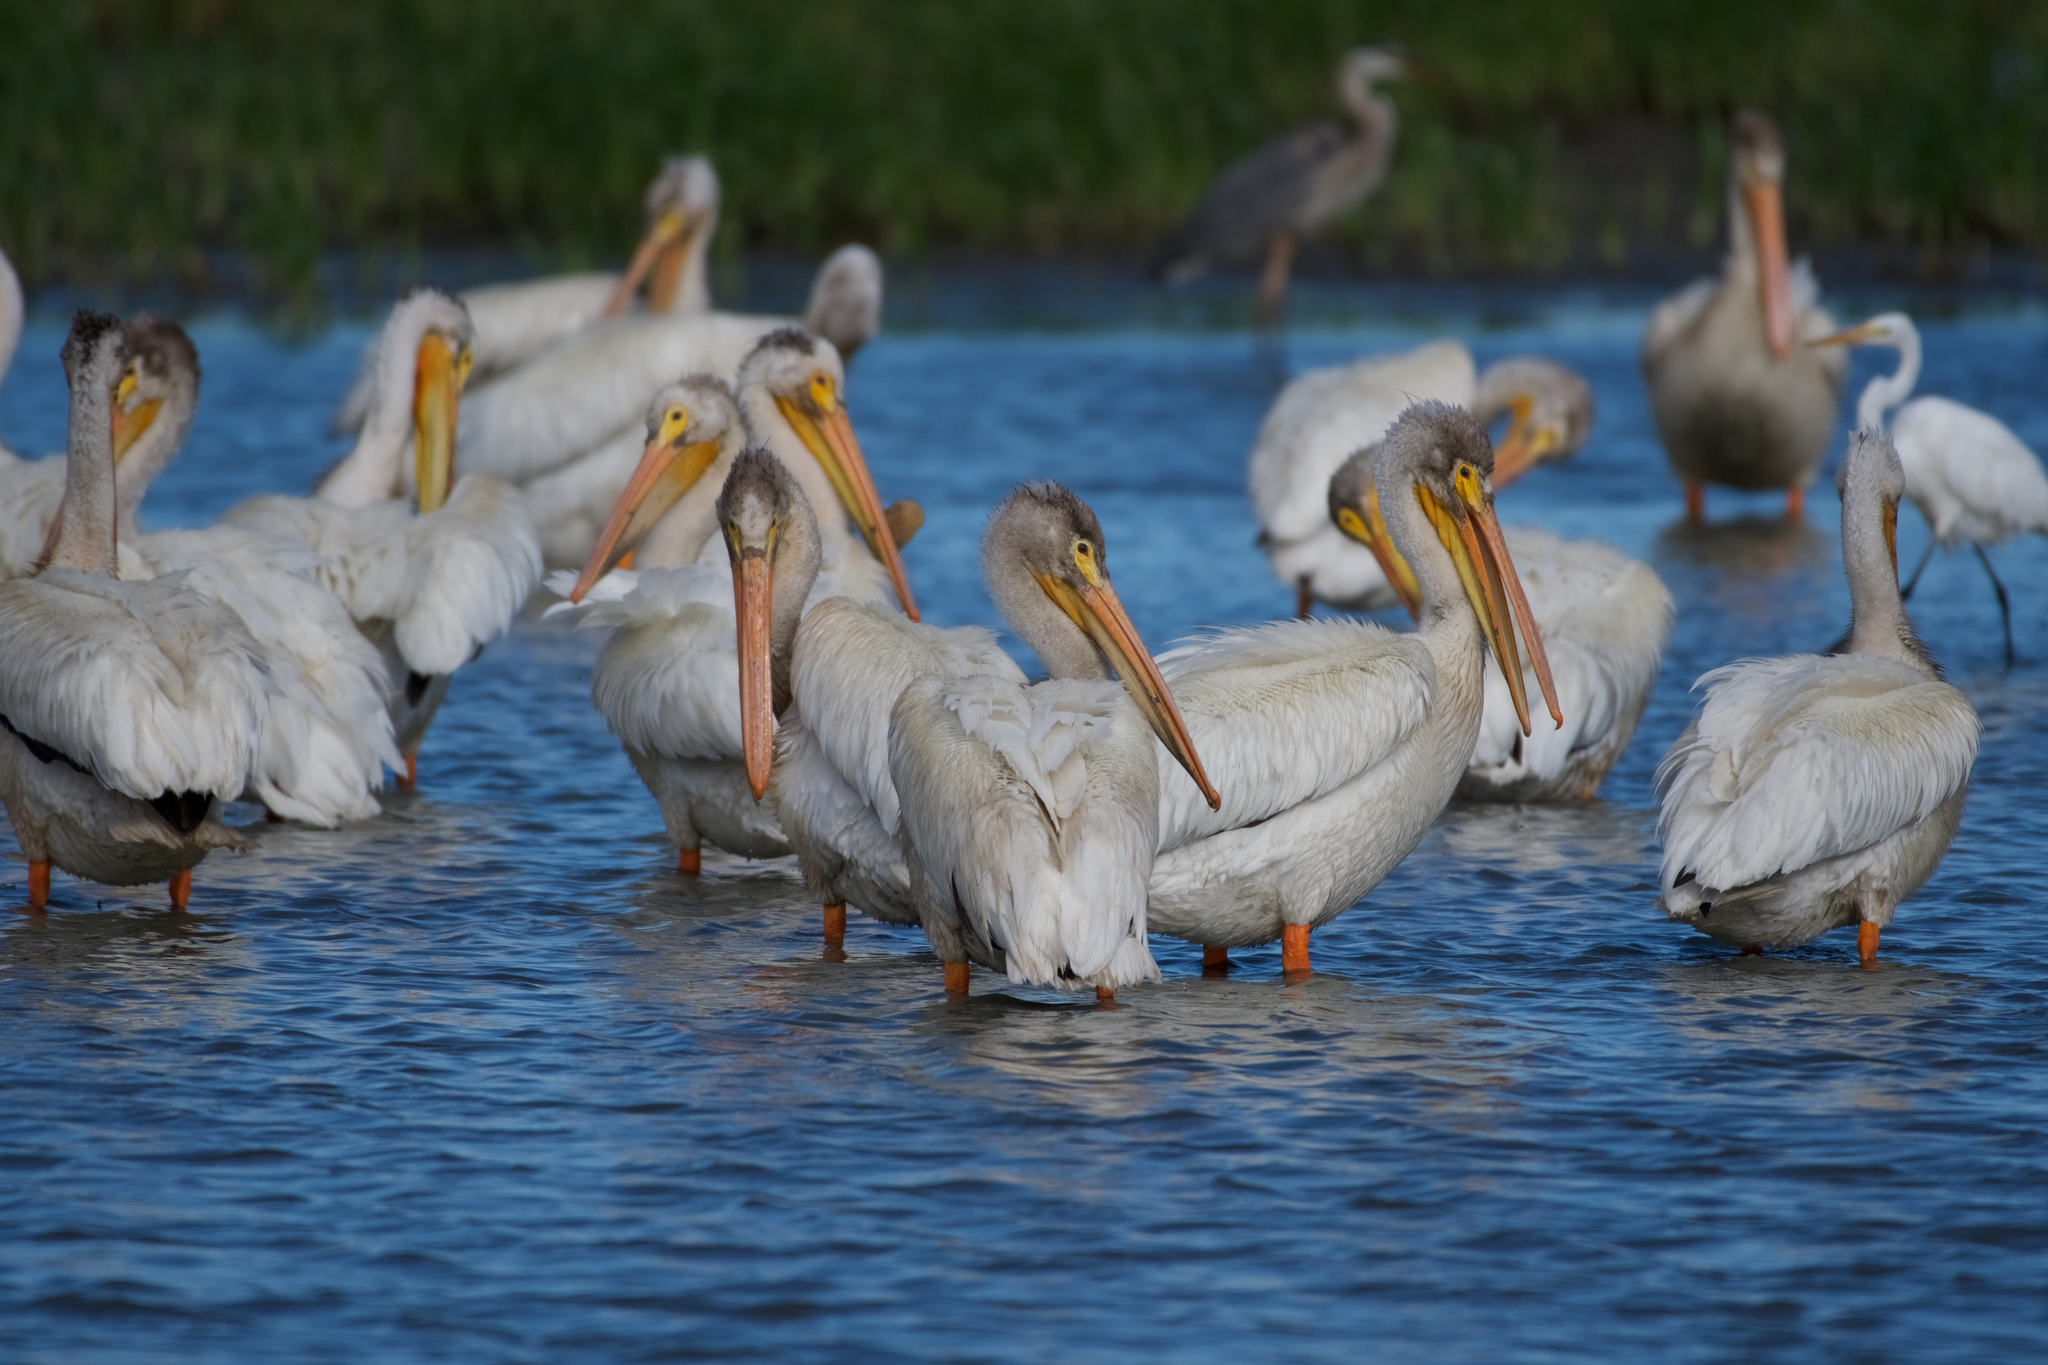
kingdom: Animalia
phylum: Chordata
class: Aves
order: Pelecaniformes
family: Pelecanidae
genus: Pelecanus
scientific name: Pelecanus erythrorhynchos
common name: American white pelican
